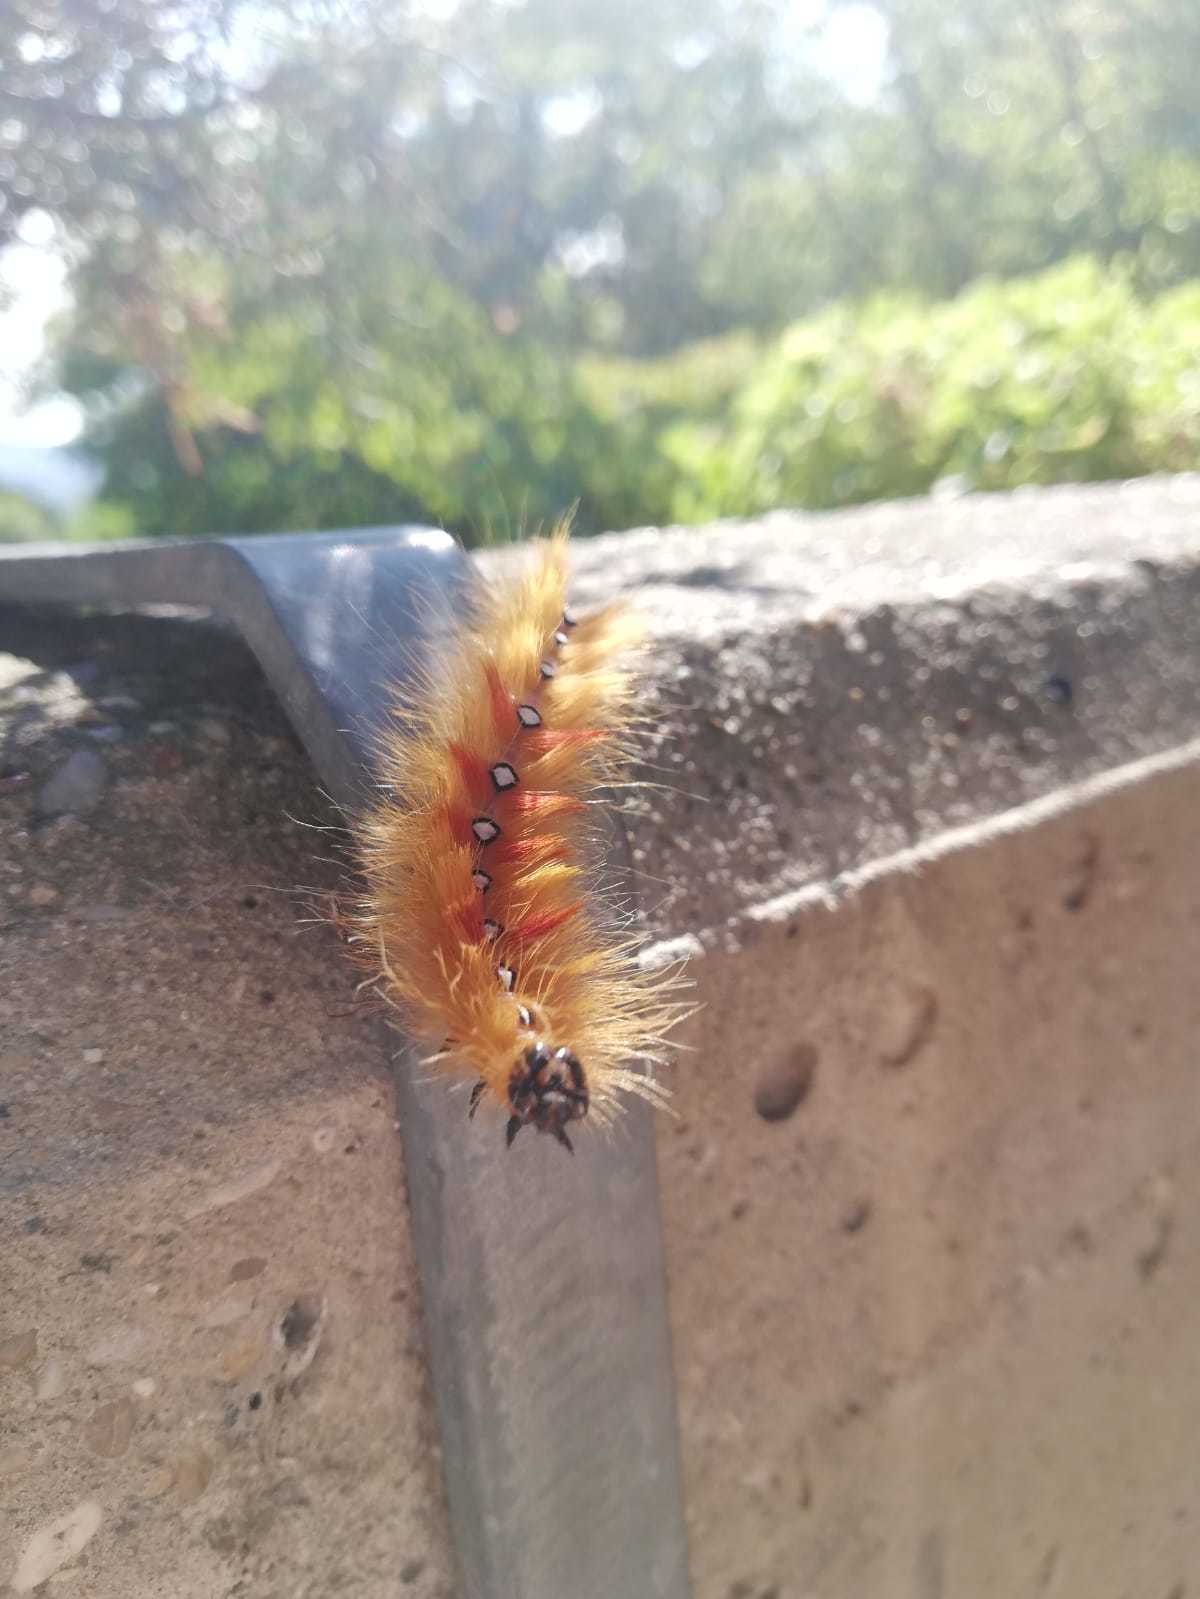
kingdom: Animalia
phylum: Arthropoda
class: Insecta
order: Lepidoptera
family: Noctuidae
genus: Acronicta
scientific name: Acronicta aceris
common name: Sycamore
